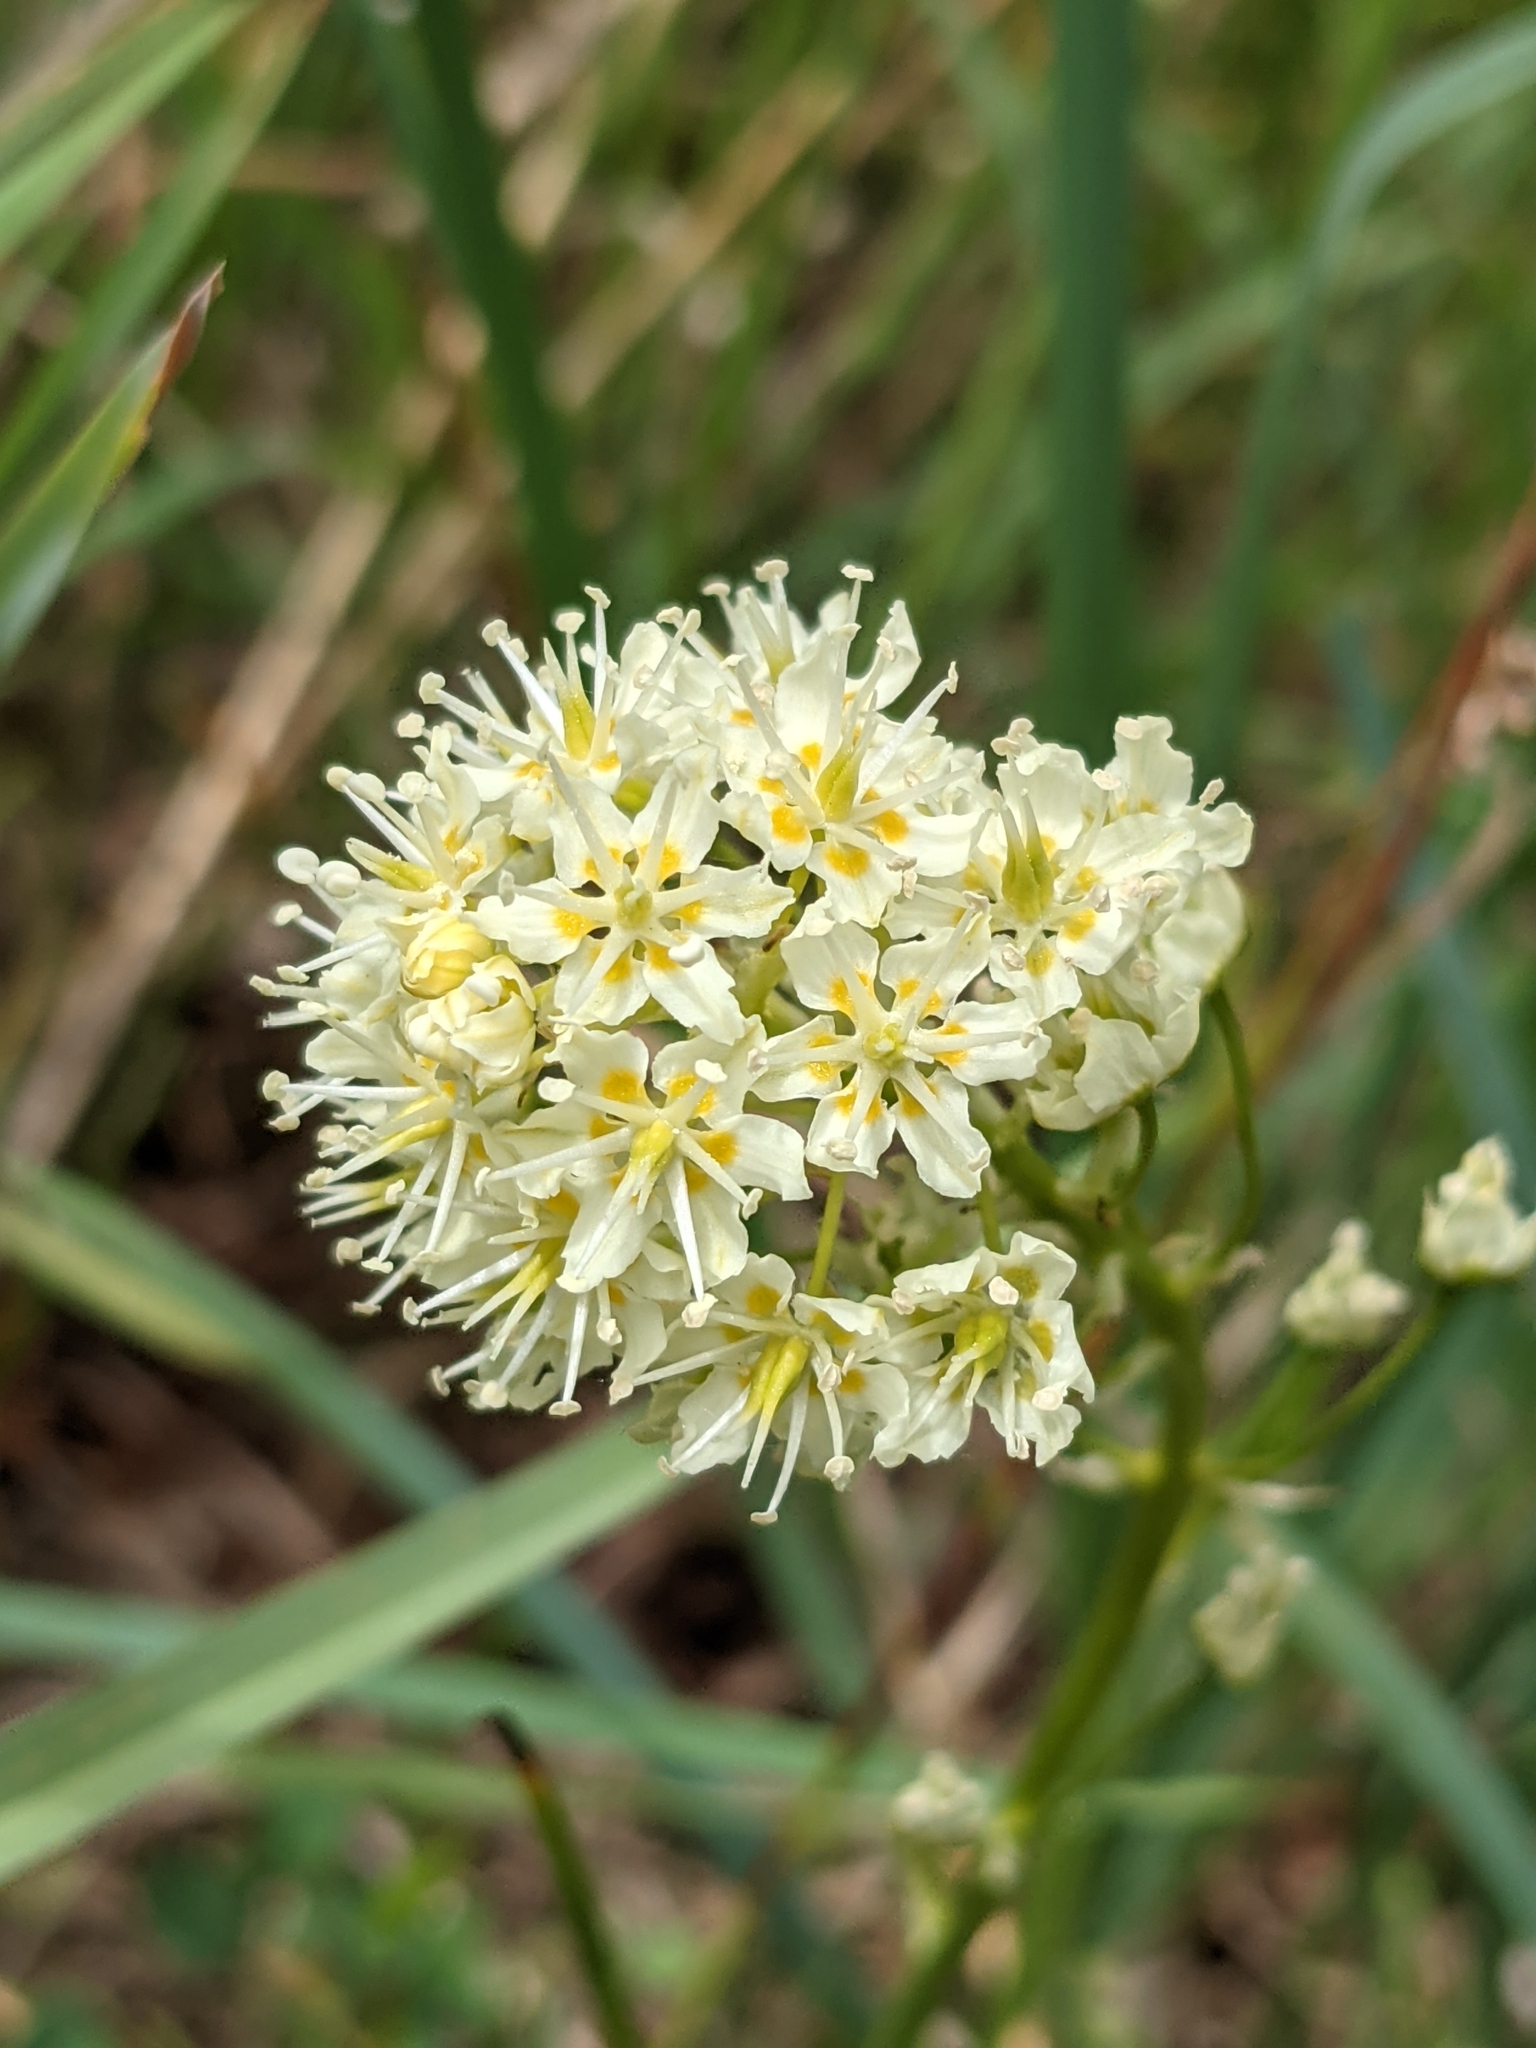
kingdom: Plantae
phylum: Tracheophyta
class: Liliopsida
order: Liliales
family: Melanthiaceae
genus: Toxicoscordion
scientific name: Toxicoscordion venenosum
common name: Meadow death camas
